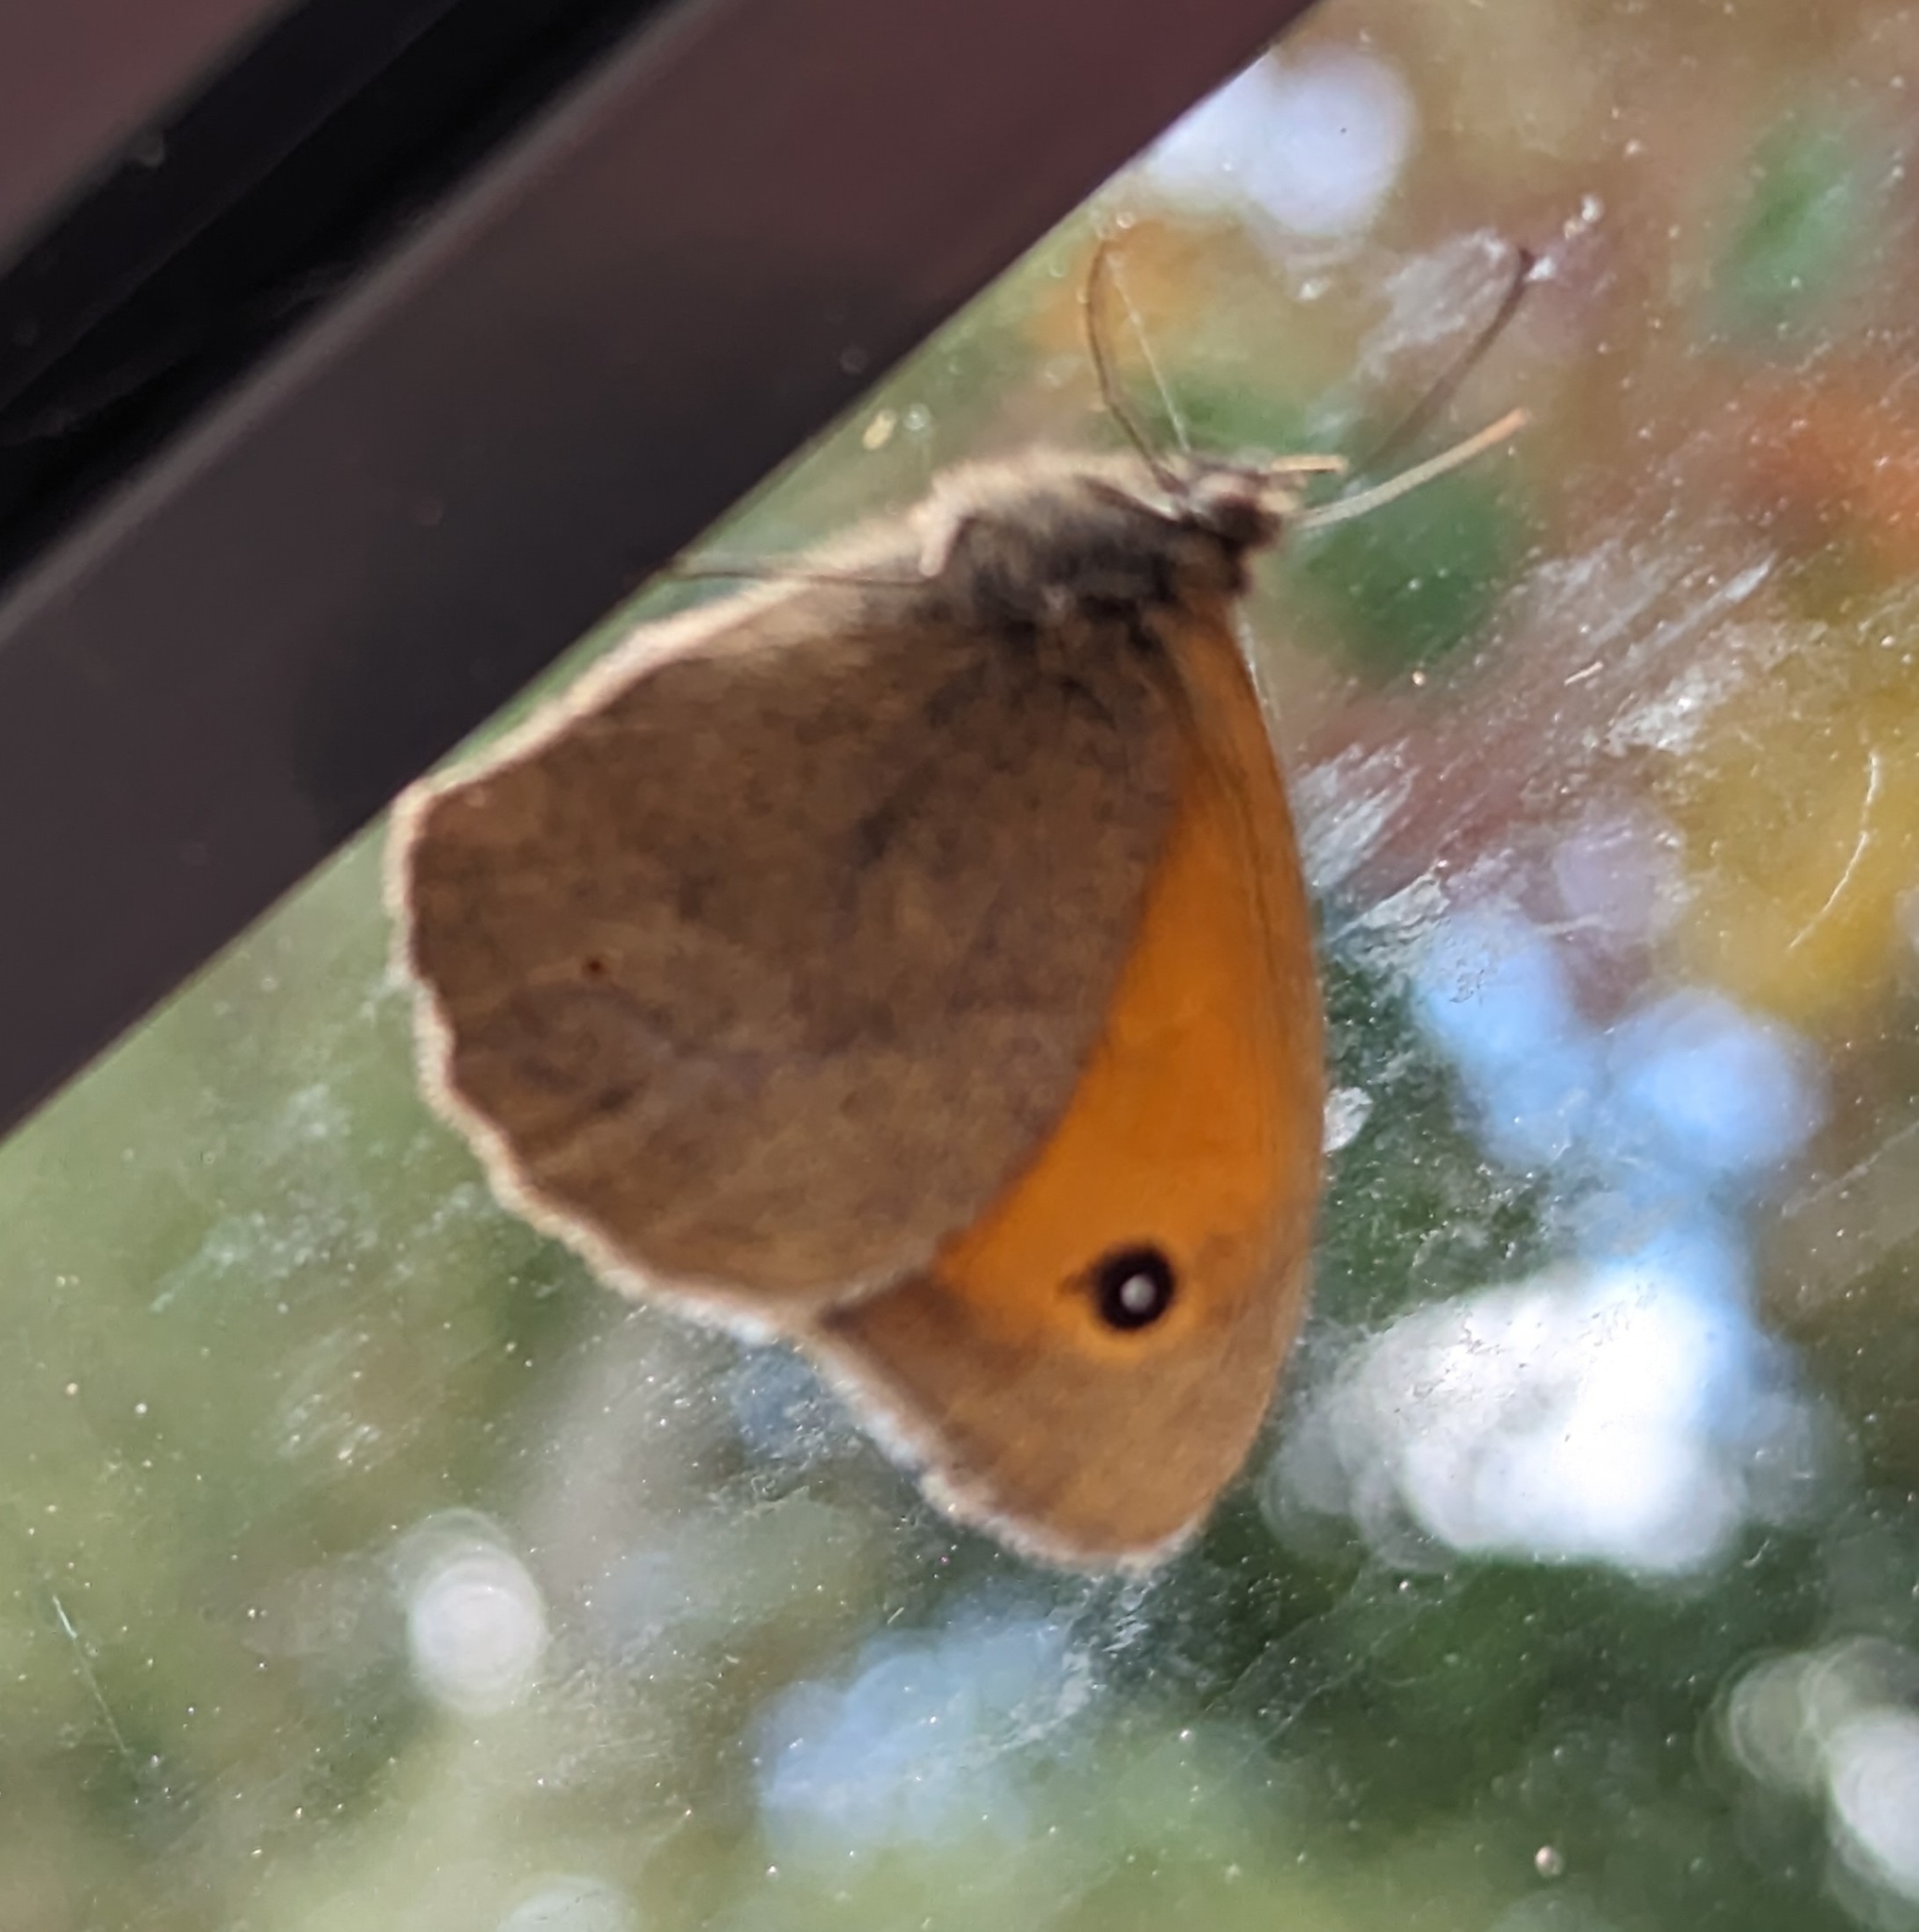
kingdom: Animalia
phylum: Arthropoda
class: Insecta
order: Lepidoptera
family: Nymphalidae
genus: Maniola
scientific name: Maniola jurtina
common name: Meadow brown
